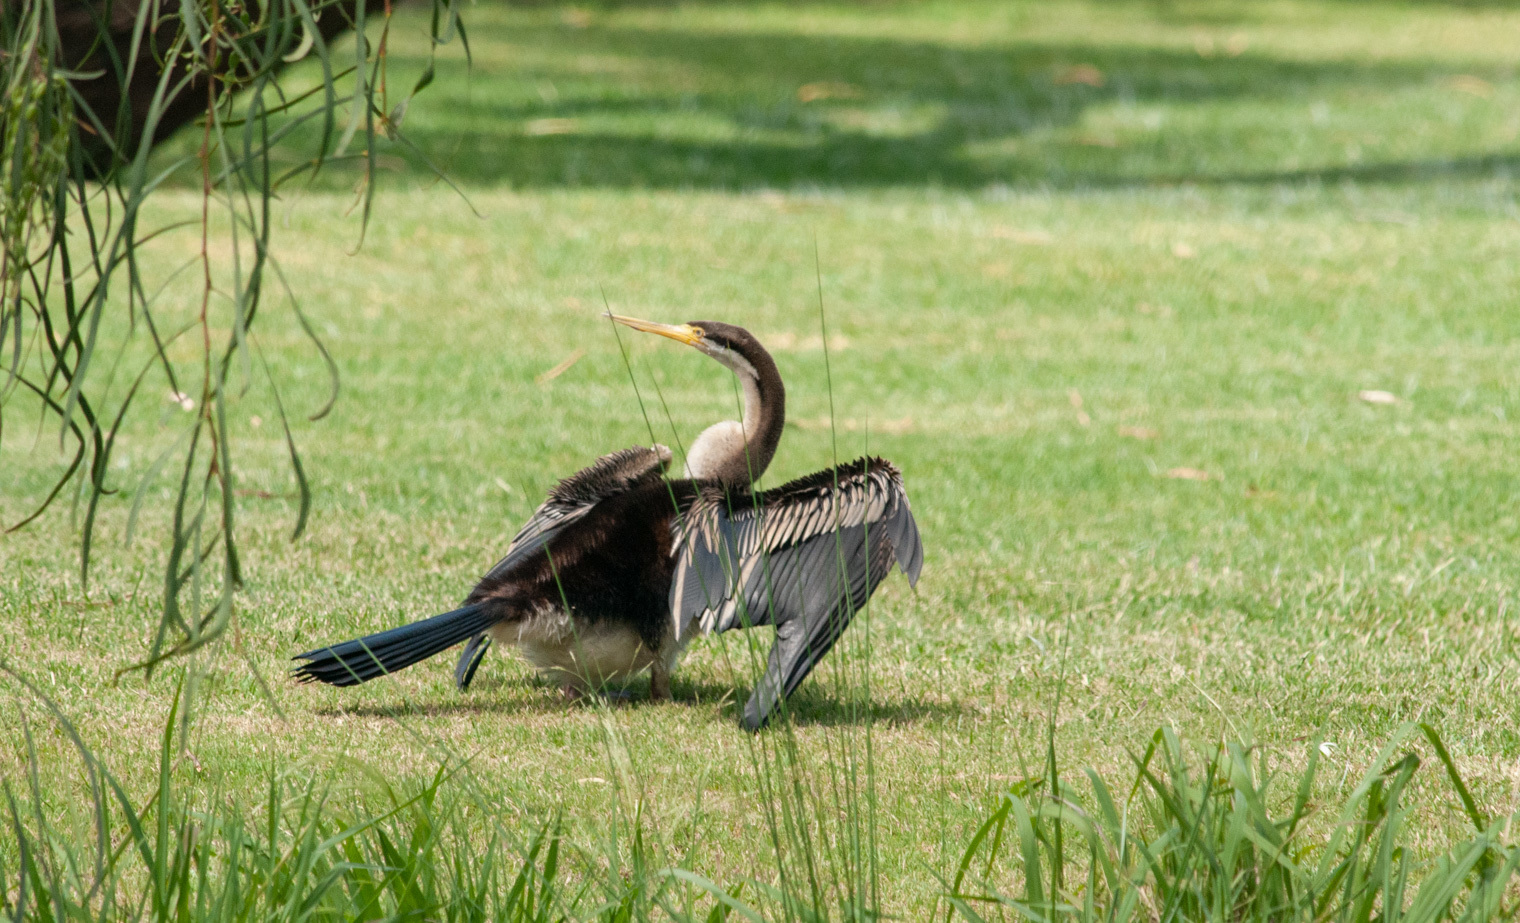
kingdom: Animalia
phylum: Chordata
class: Aves
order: Suliformes
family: Anhingidae
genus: Anhinga
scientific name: Anhinga novaehollandiae
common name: Australasian darter
